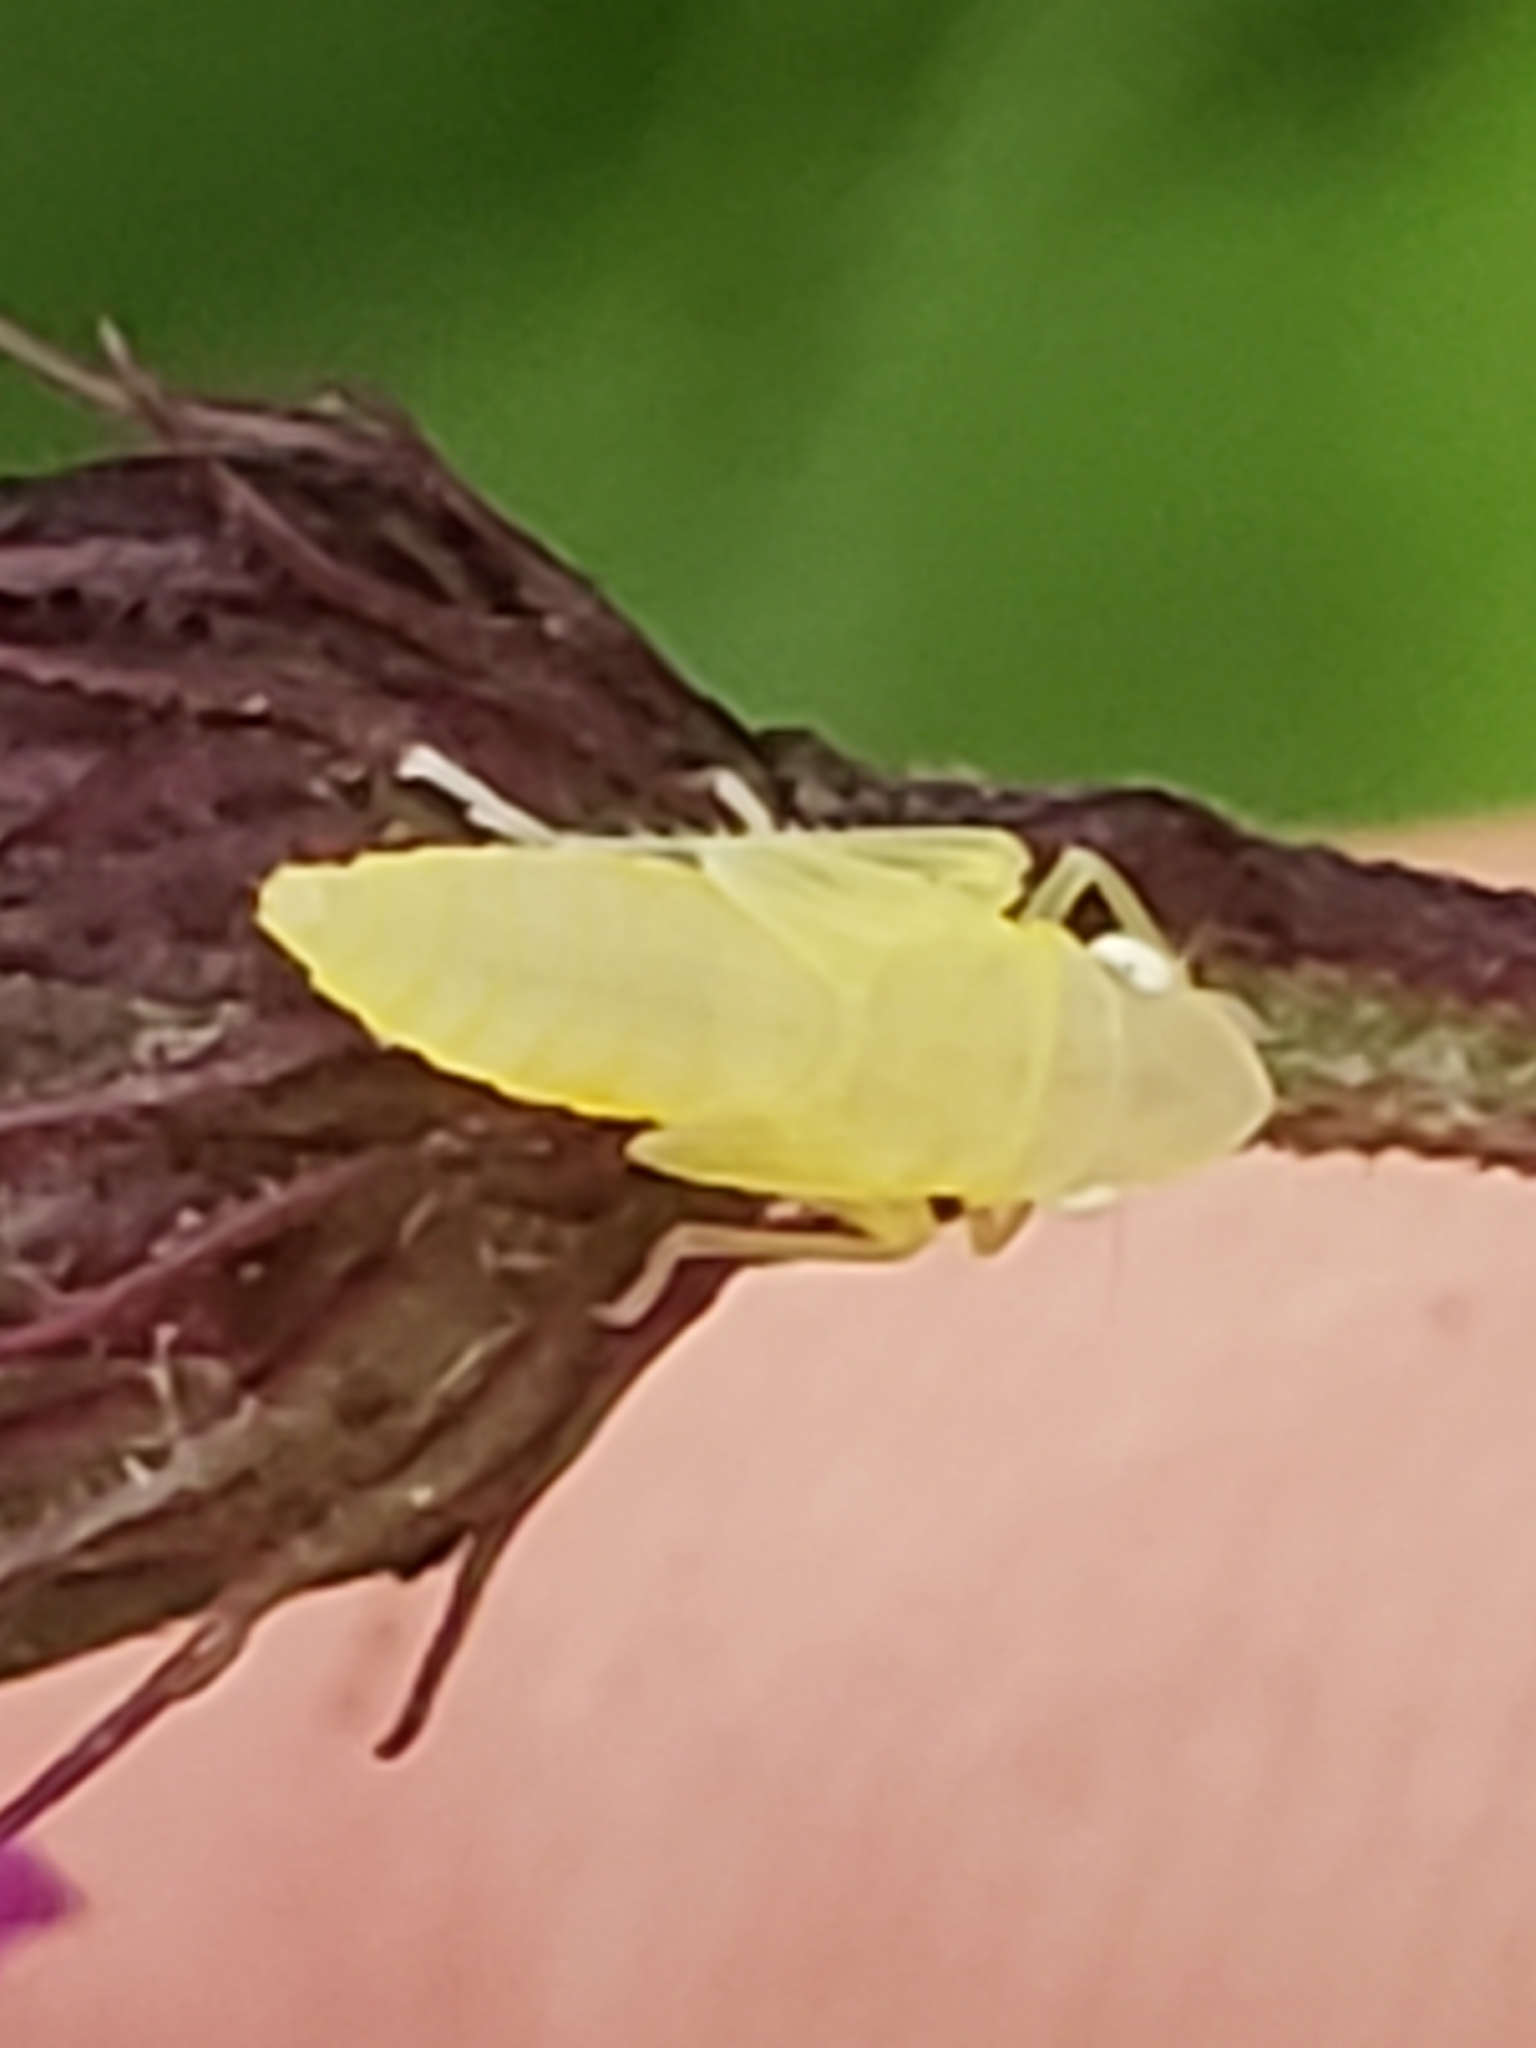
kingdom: Animalia
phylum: Arthropoda
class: Insecta
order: Hemiptera
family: Cicadellidae
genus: Paraulacizes
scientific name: Paraulacizes irrorata
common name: Speckled sharpshooter
